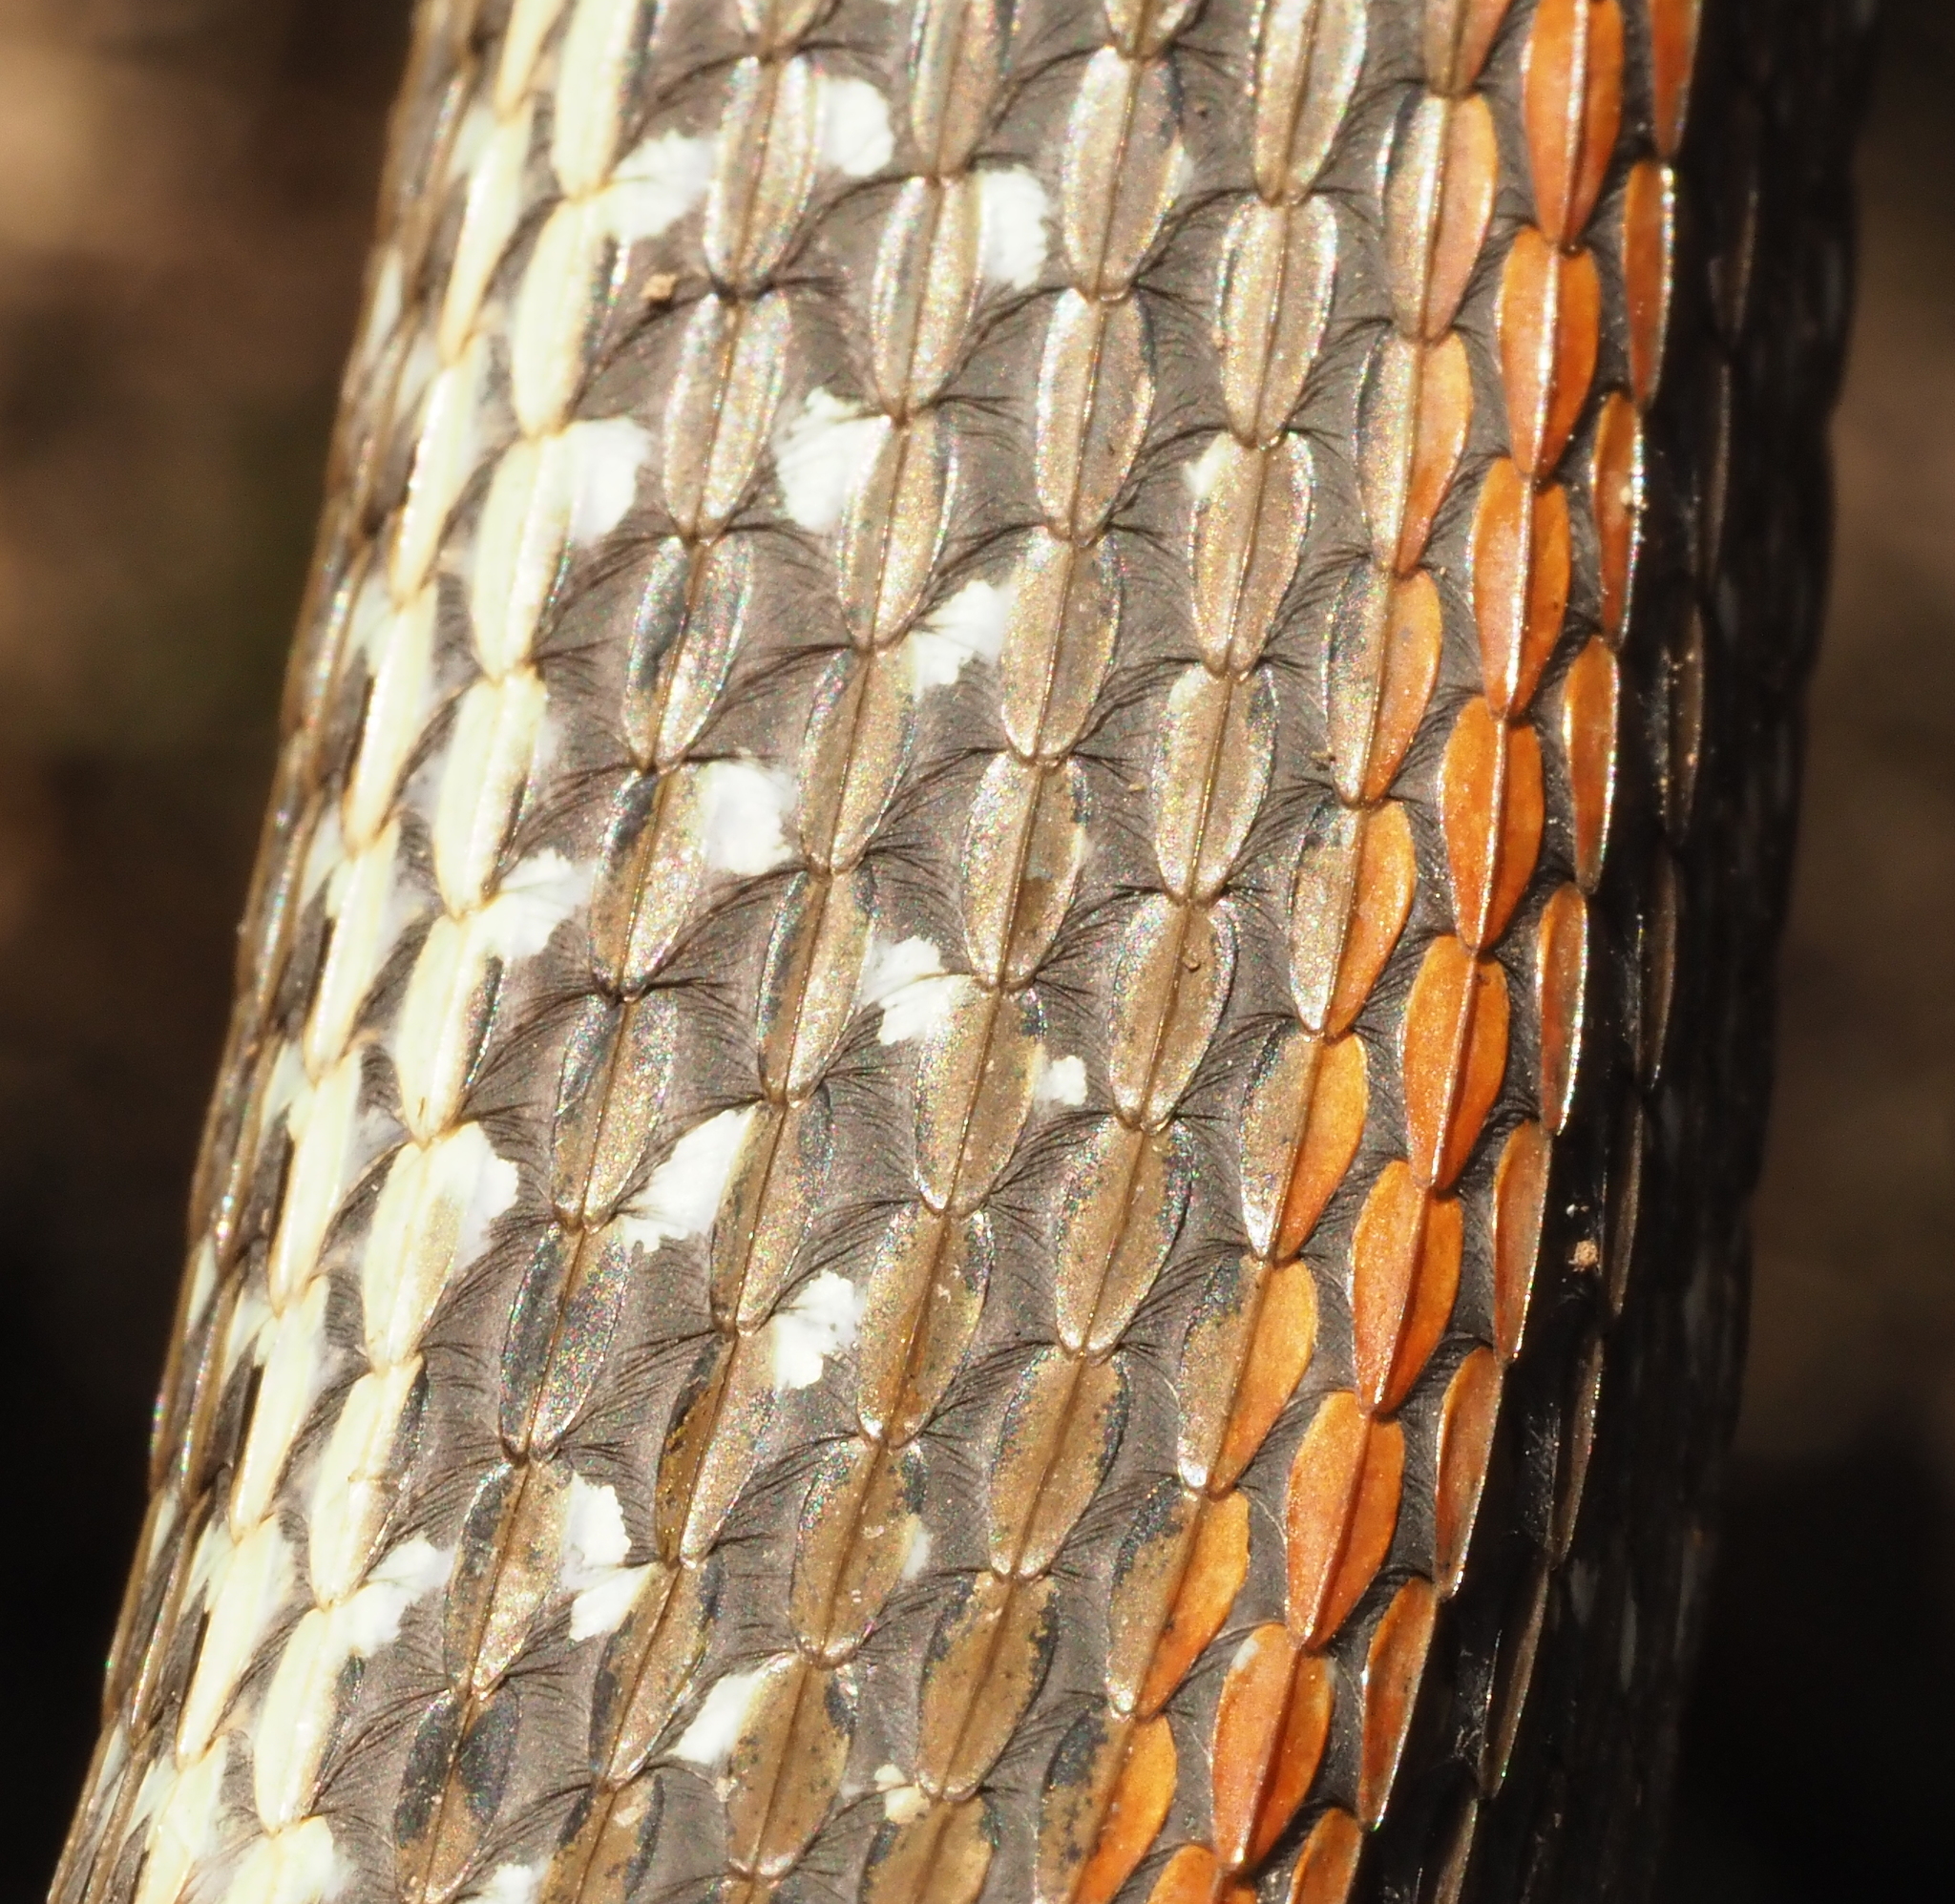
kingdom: Animalia
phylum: Chordata
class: Squamata
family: Colubridae
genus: Thamnophis
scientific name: Thamnophis proximus
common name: Western ribbon snake
